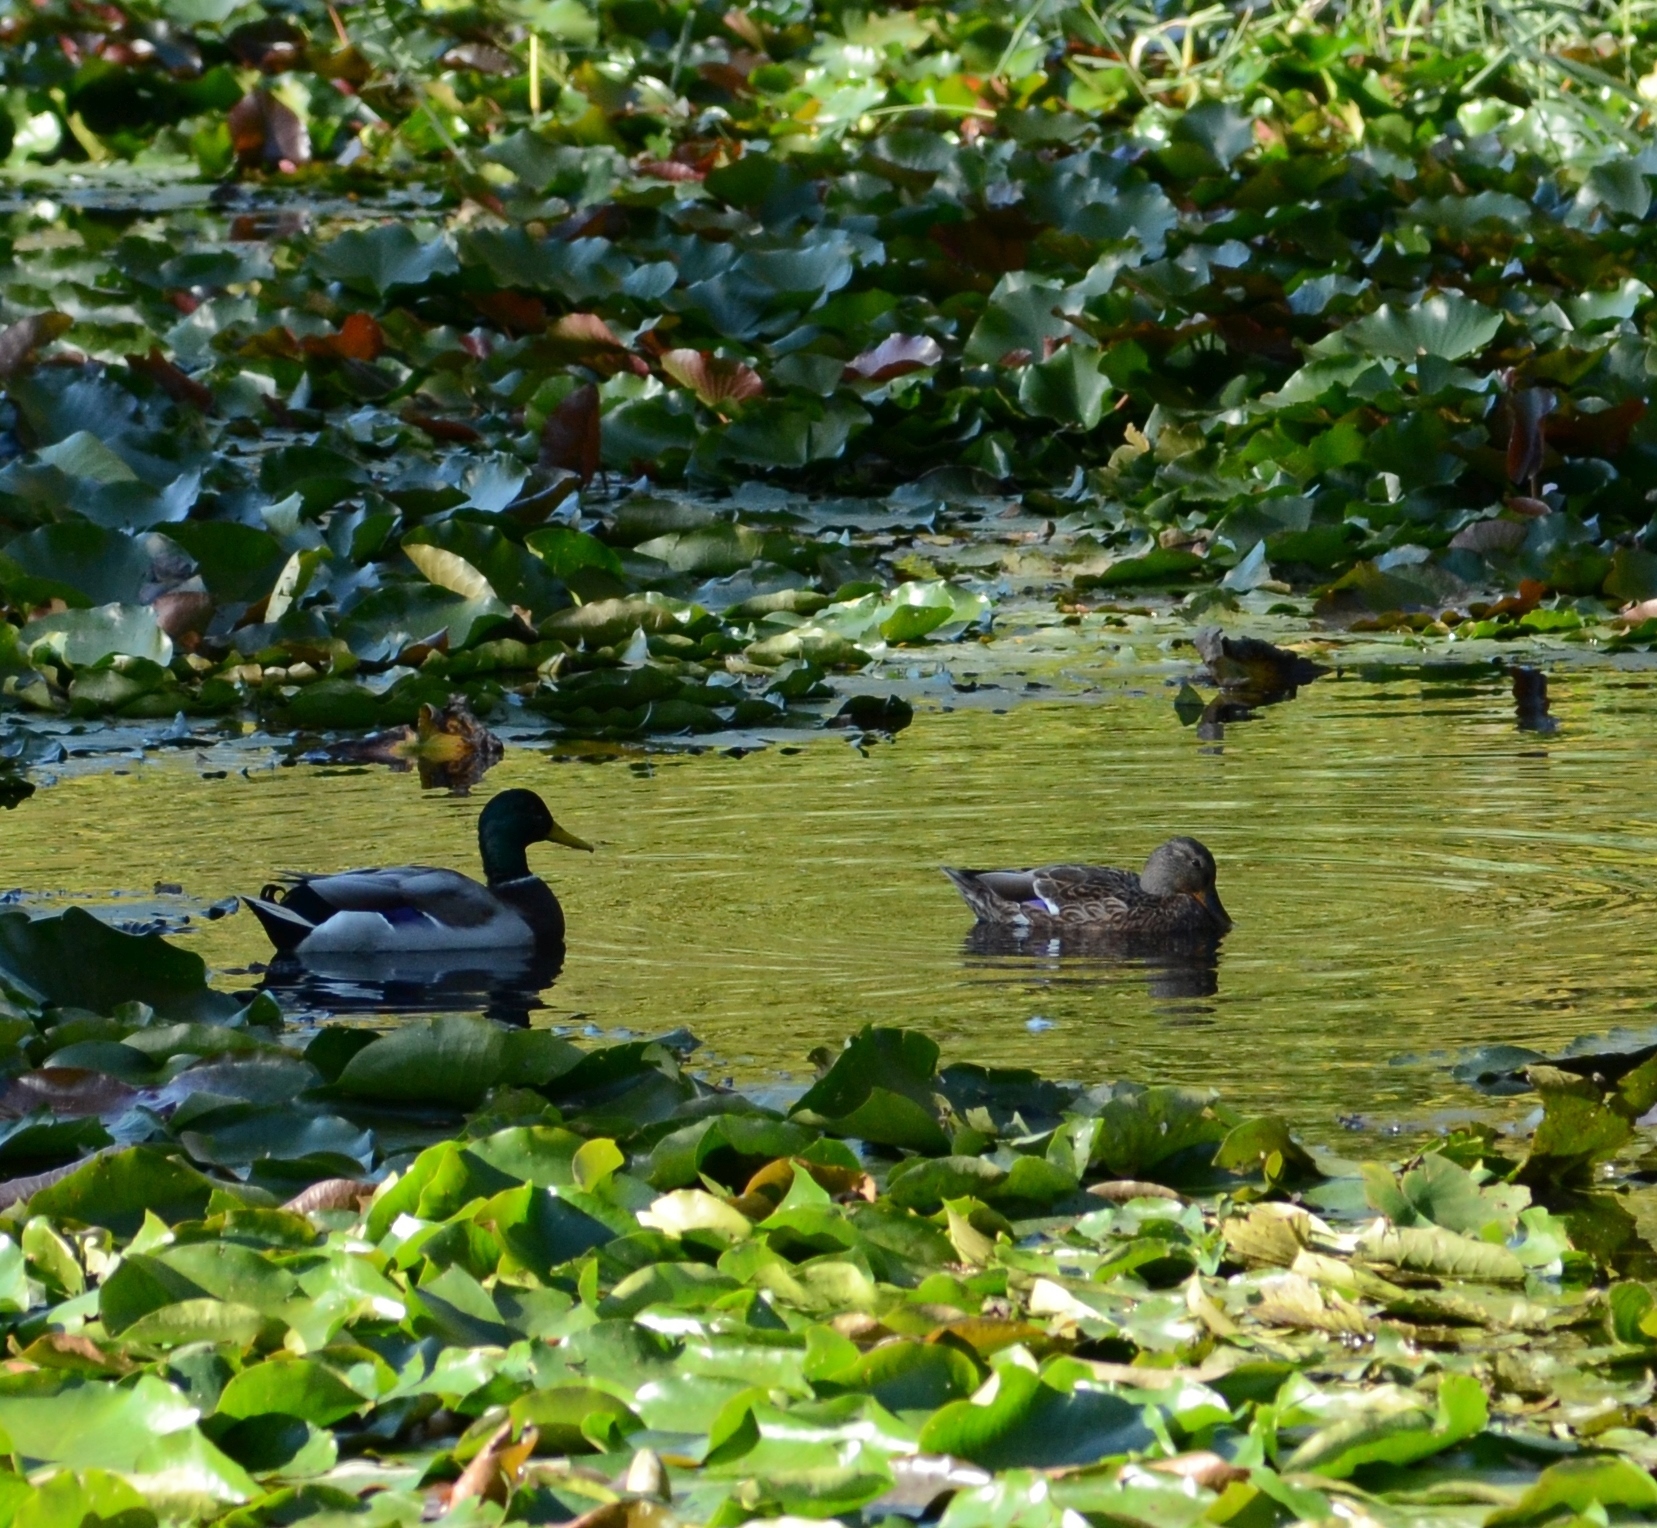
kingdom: Animalia
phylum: Chordata
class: Aves
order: Anseriformes
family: Anatidae
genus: Anas
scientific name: Anas platyrhynchos
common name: Mallard
